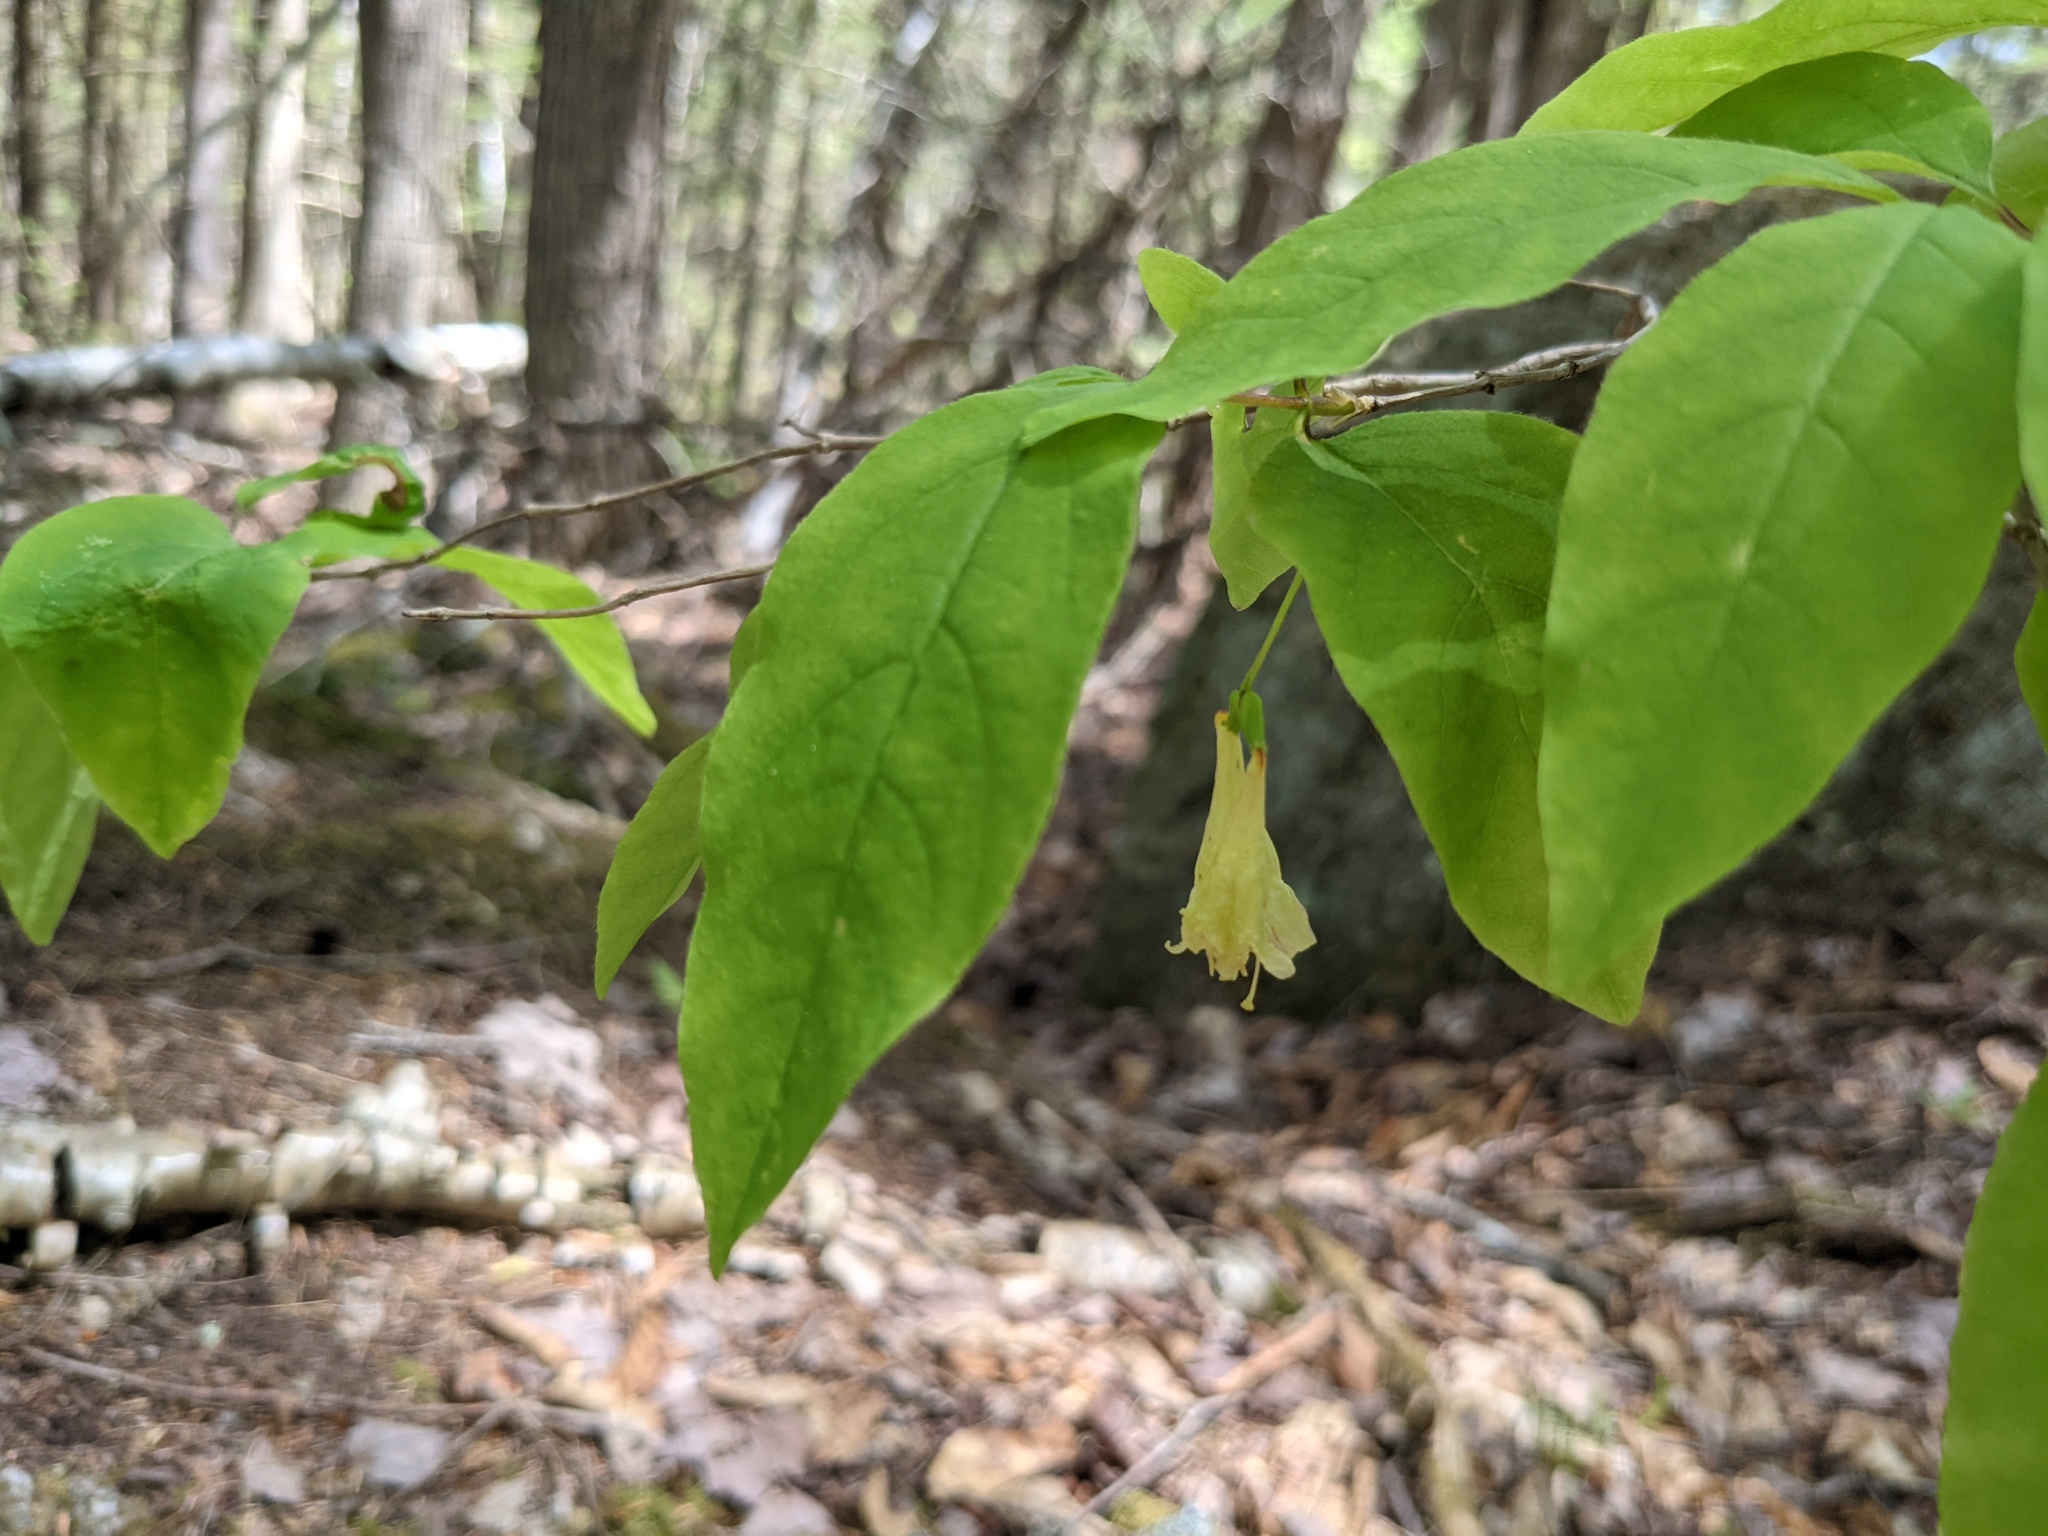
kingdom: Plantae
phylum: Tracheophyta
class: Magnoliopsida
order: Dipsacales
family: Caprifoliaceae
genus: Lonicera
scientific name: Lonicera canadensis
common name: American fly-honeysuckle
